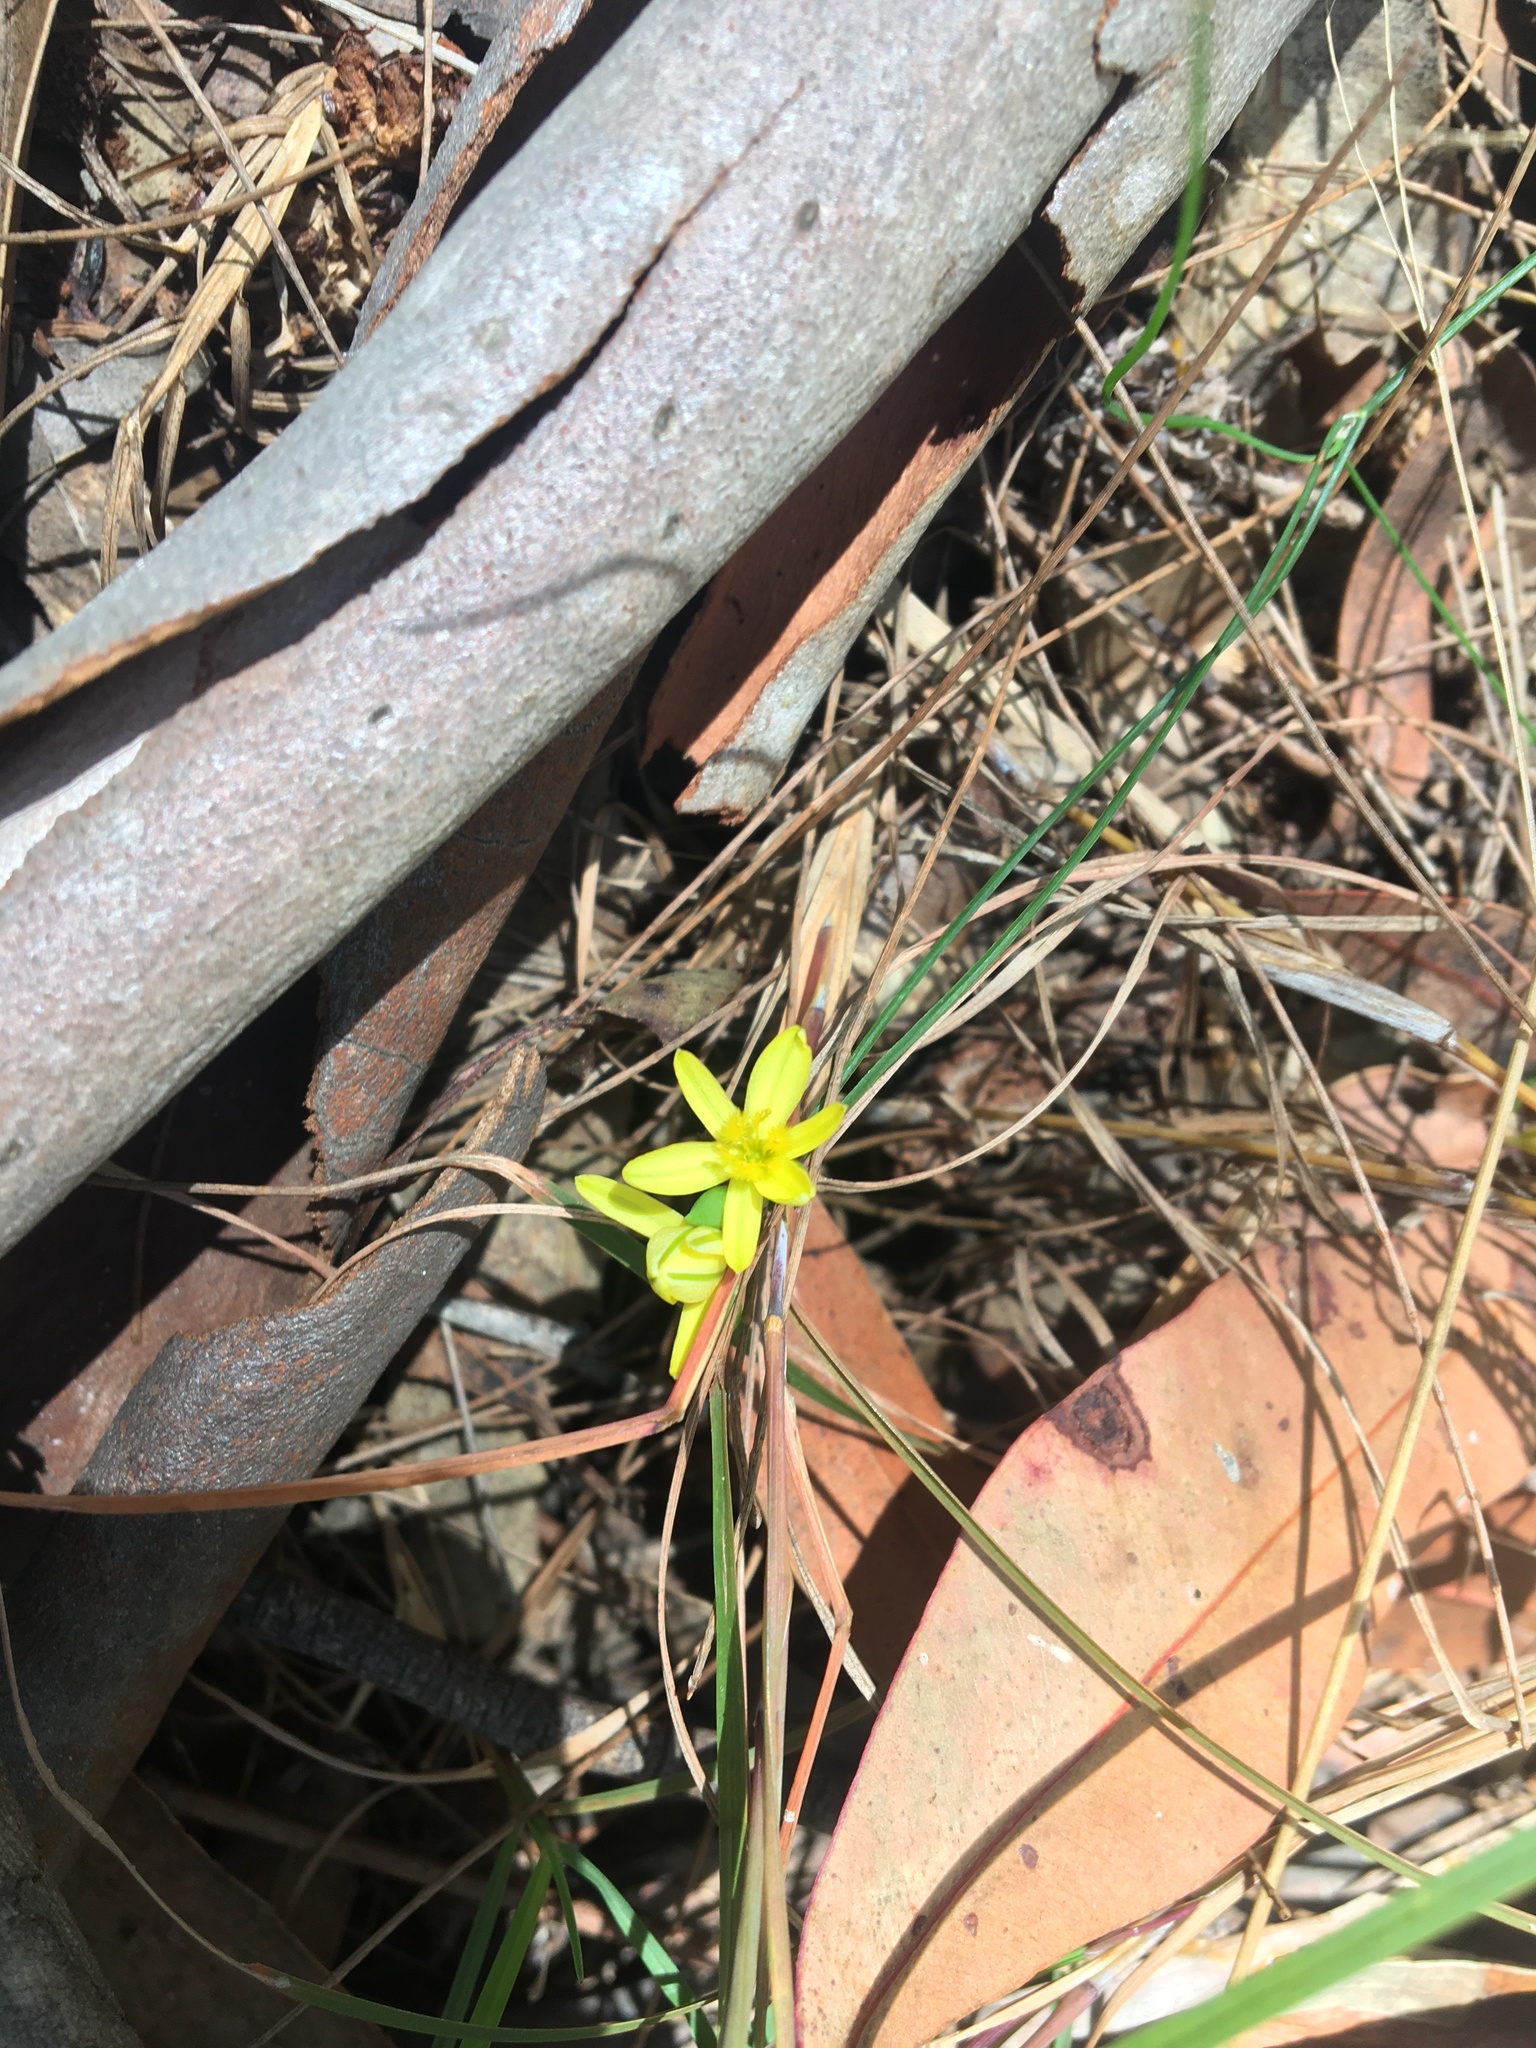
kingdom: Plantae
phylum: Tracheophyta
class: Liliopsida
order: Asparagales
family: Asphodelaceae
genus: Tricoryne
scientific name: Tricoryne elatior
